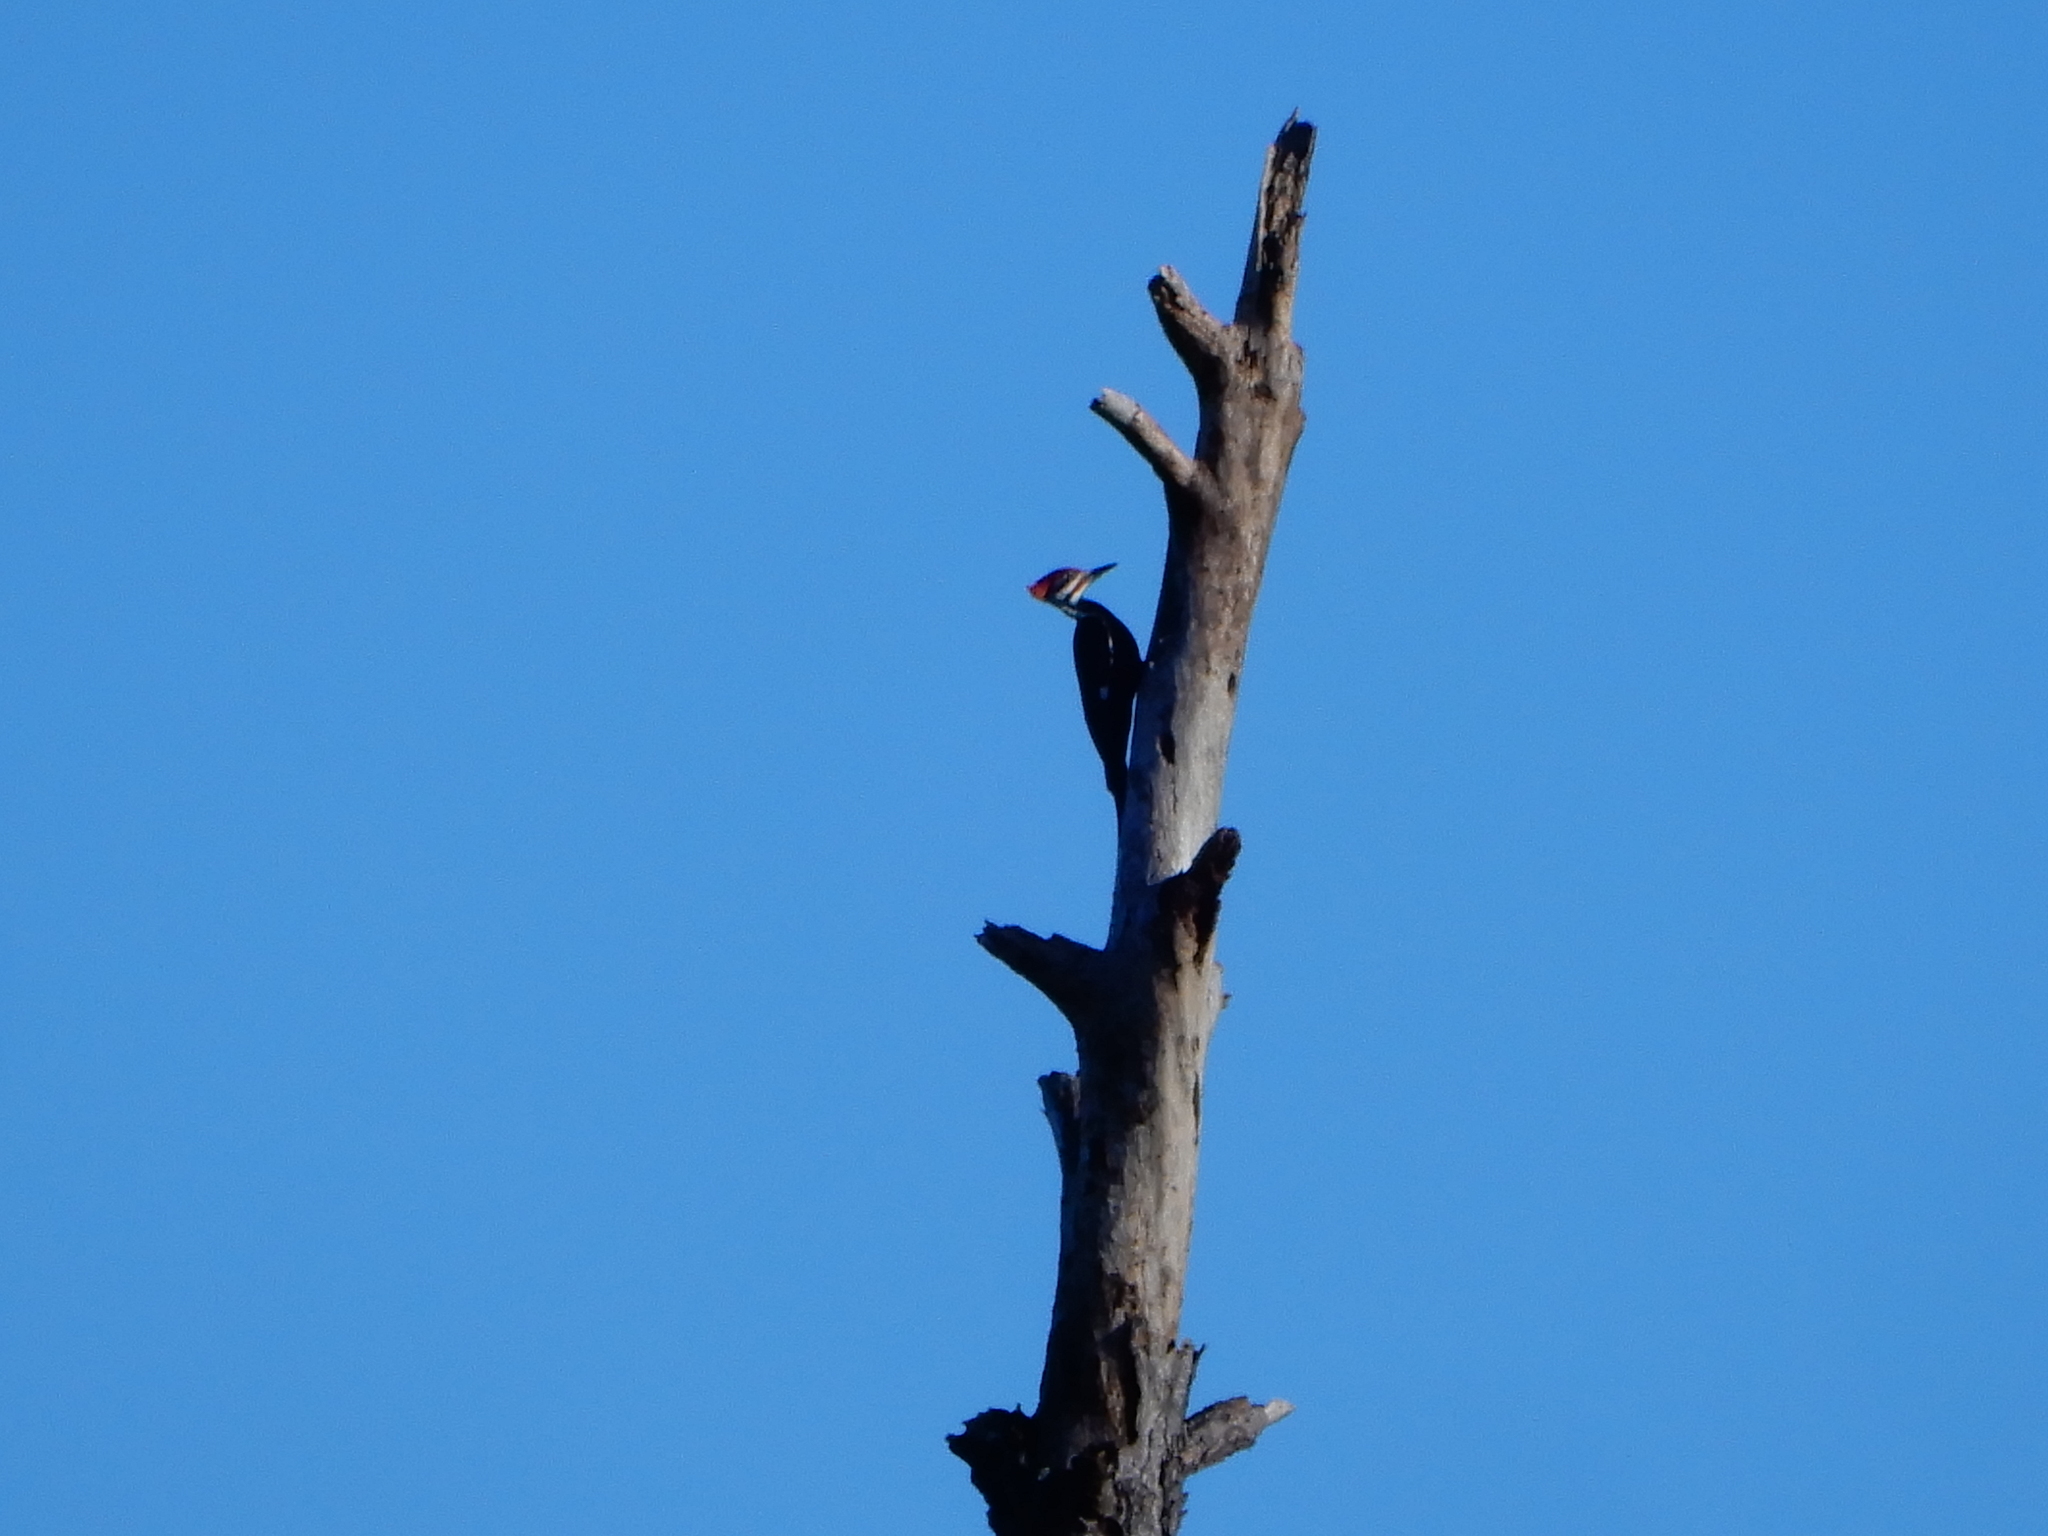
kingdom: Animalia
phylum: Chordata
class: Aves
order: Piciformes
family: Picidae
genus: Dryocopus
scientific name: Dryocopus pileatus
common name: Pileated woodpecker
